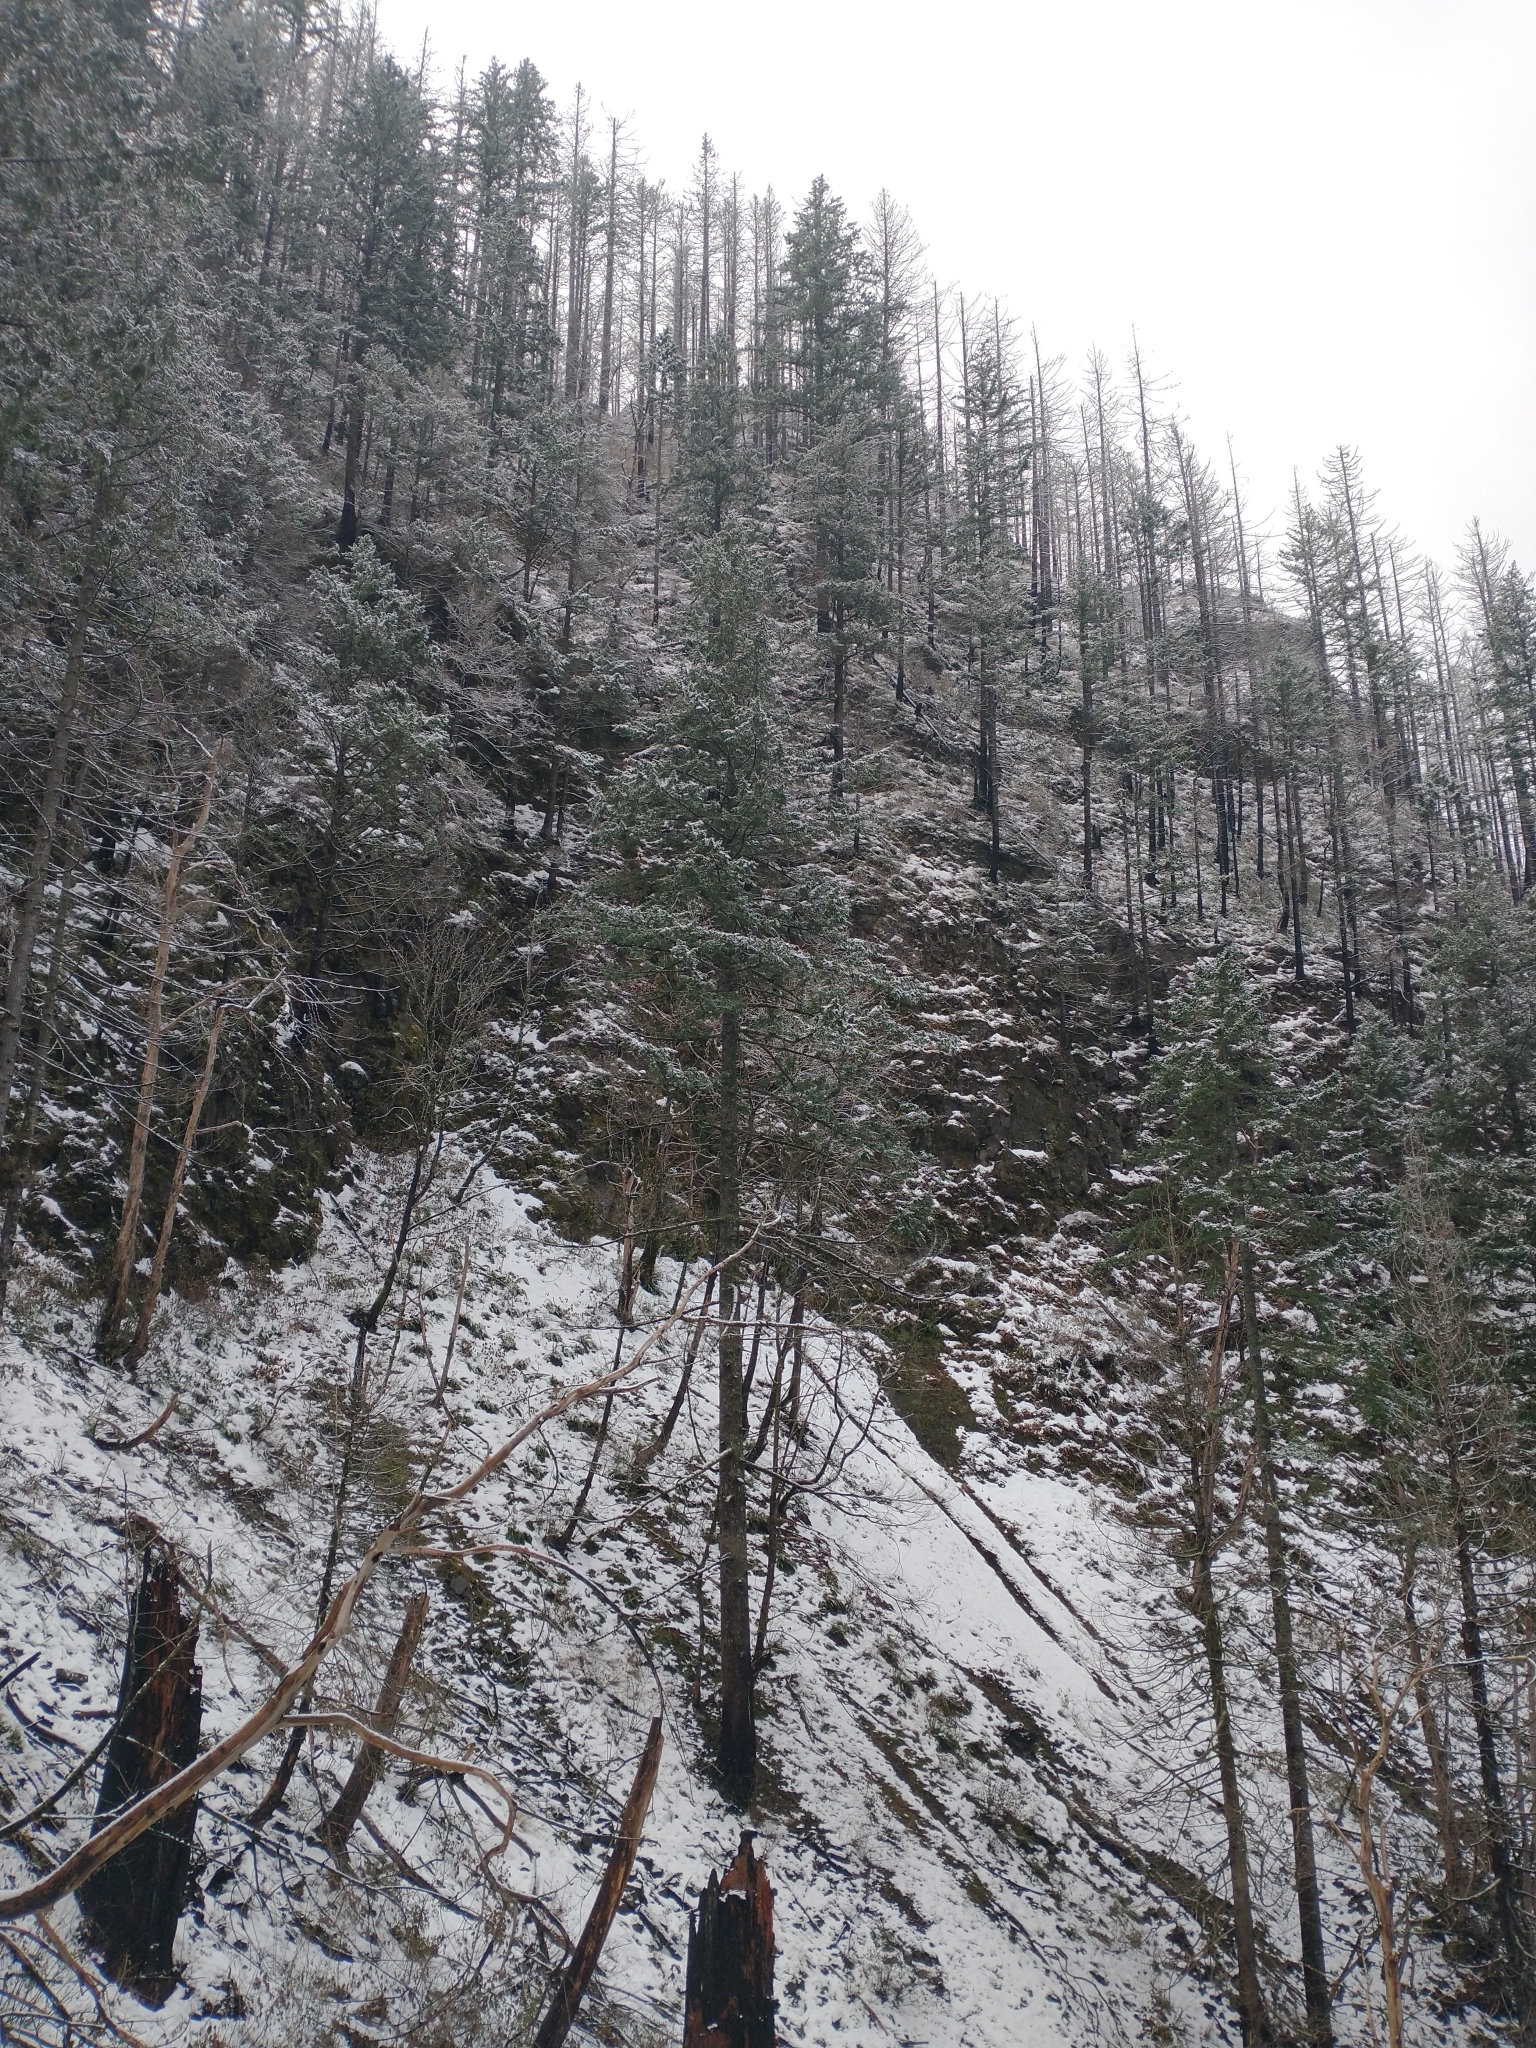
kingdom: Plantae
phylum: Tracheophyta
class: Pinopsida
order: Pinales
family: Pinaceae
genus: Pseudotsuga
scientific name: Pseudotsuga menziesii
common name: Douglas fir
